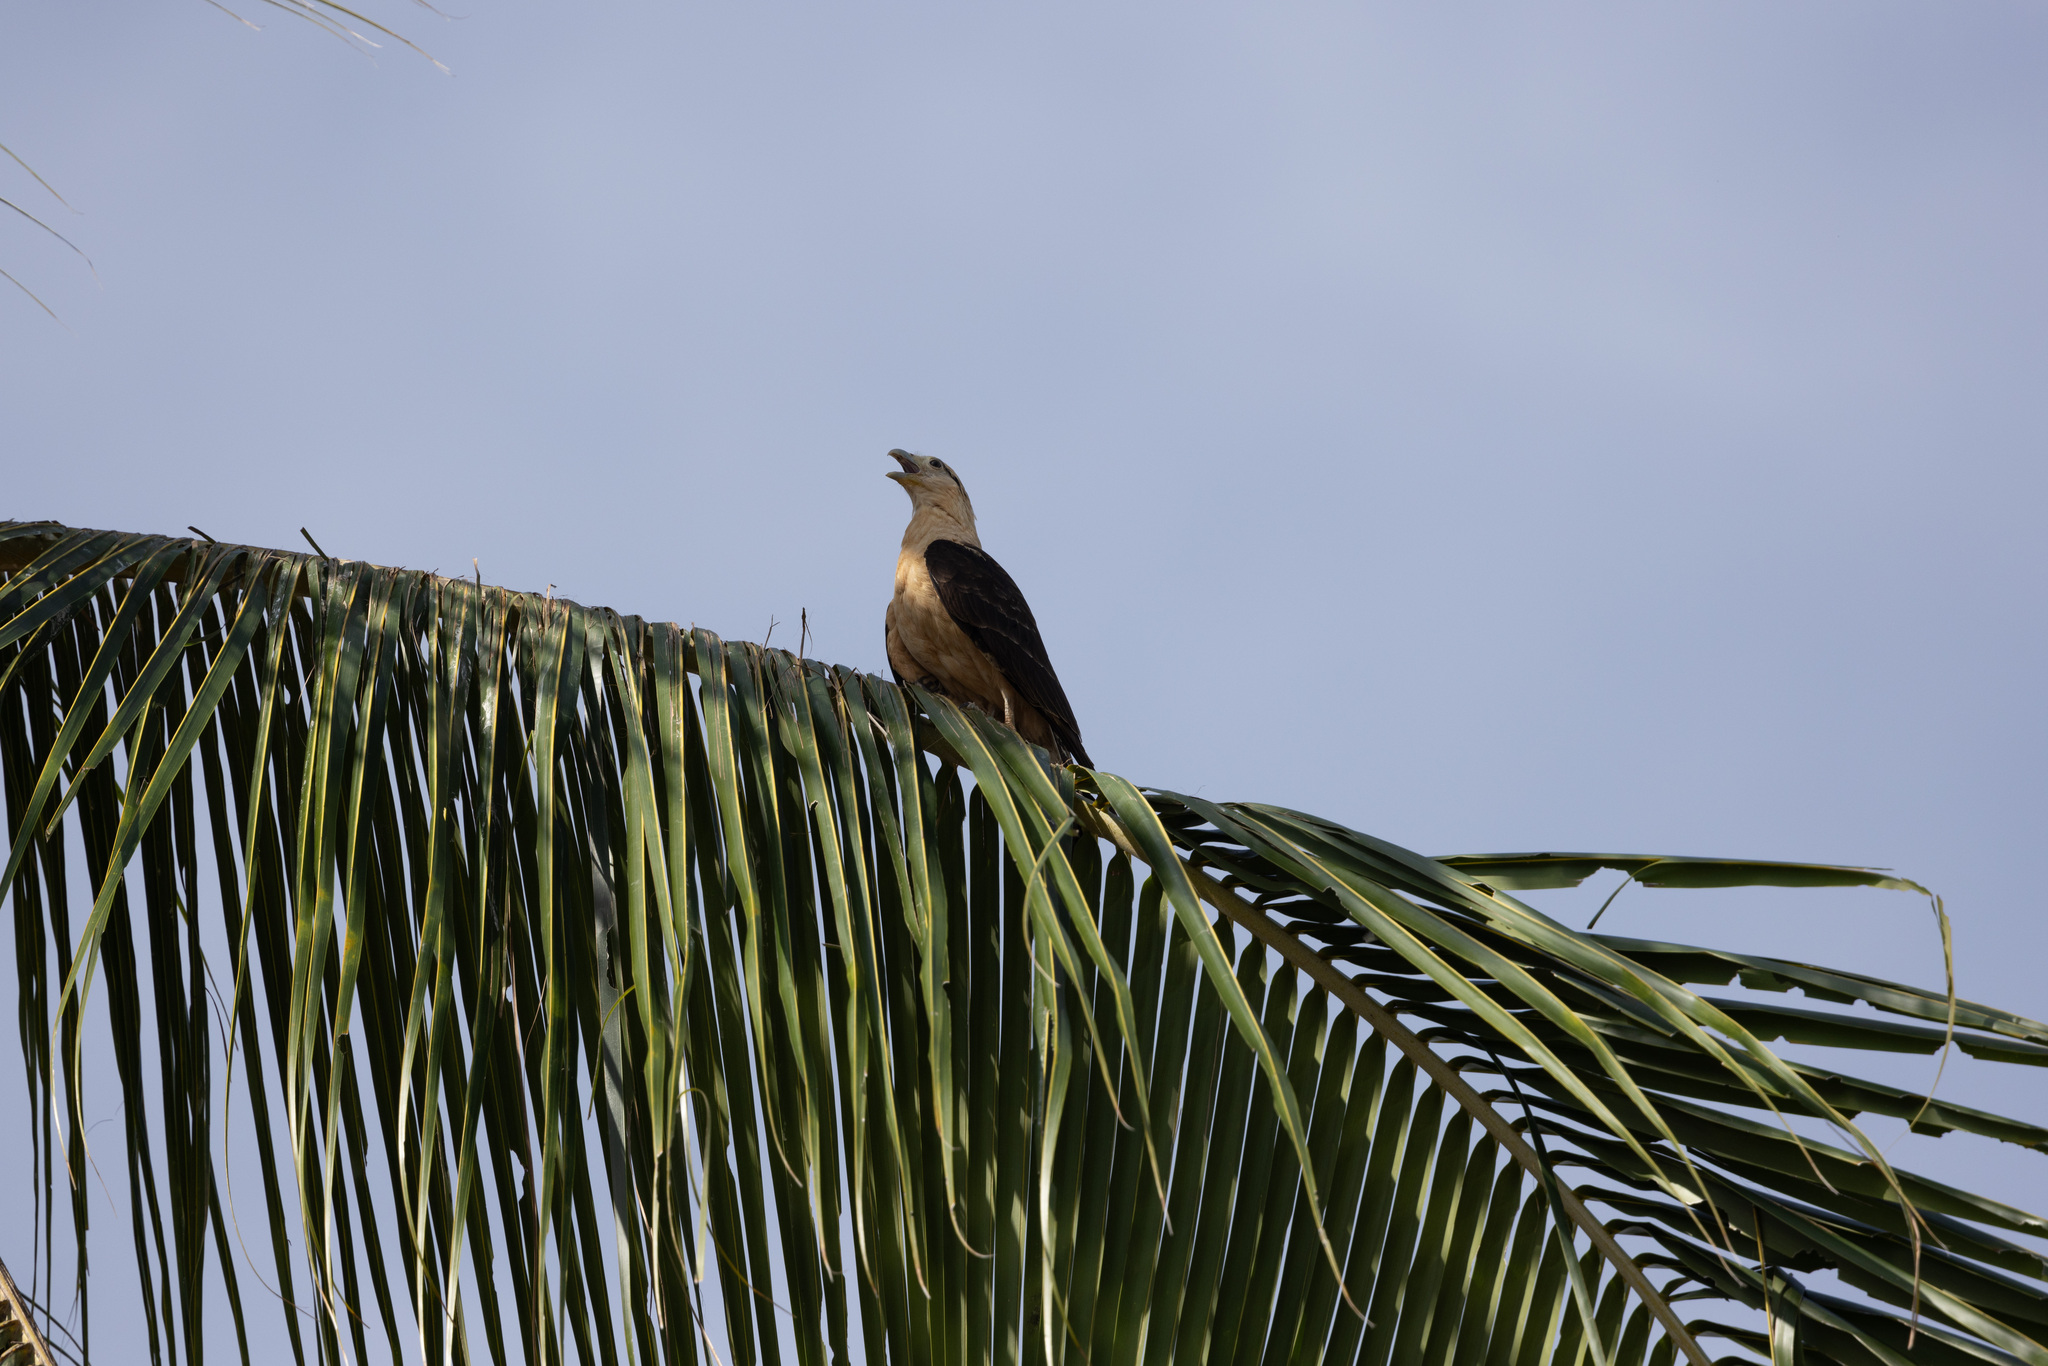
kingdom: Animalia
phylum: Chordata
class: Aves
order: Falconiformes
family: Falconidae
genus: Daptrius
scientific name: Daptrius
